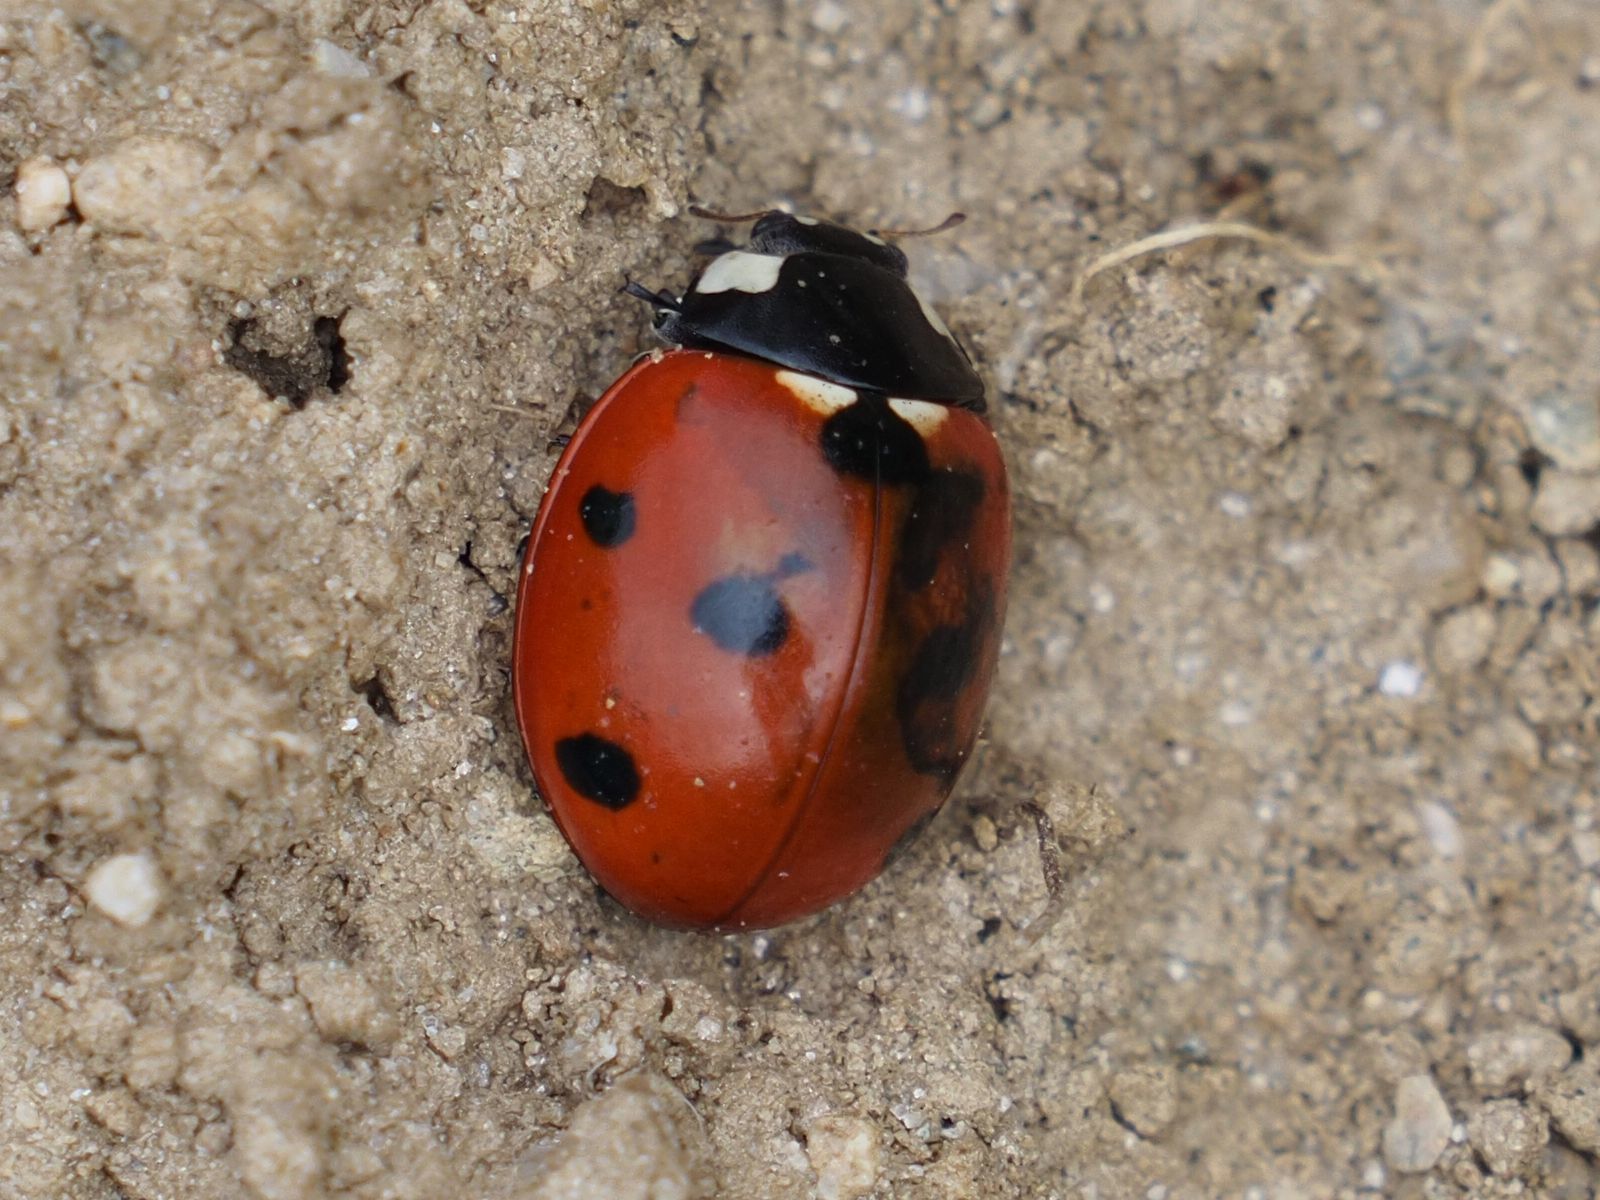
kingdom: Animalia
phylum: Arthropoda
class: Insecta
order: Coleoptera
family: Coccinellidae
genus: Coccinella
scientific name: Coccinella septempunctata
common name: Sevenspotted lady beetle
